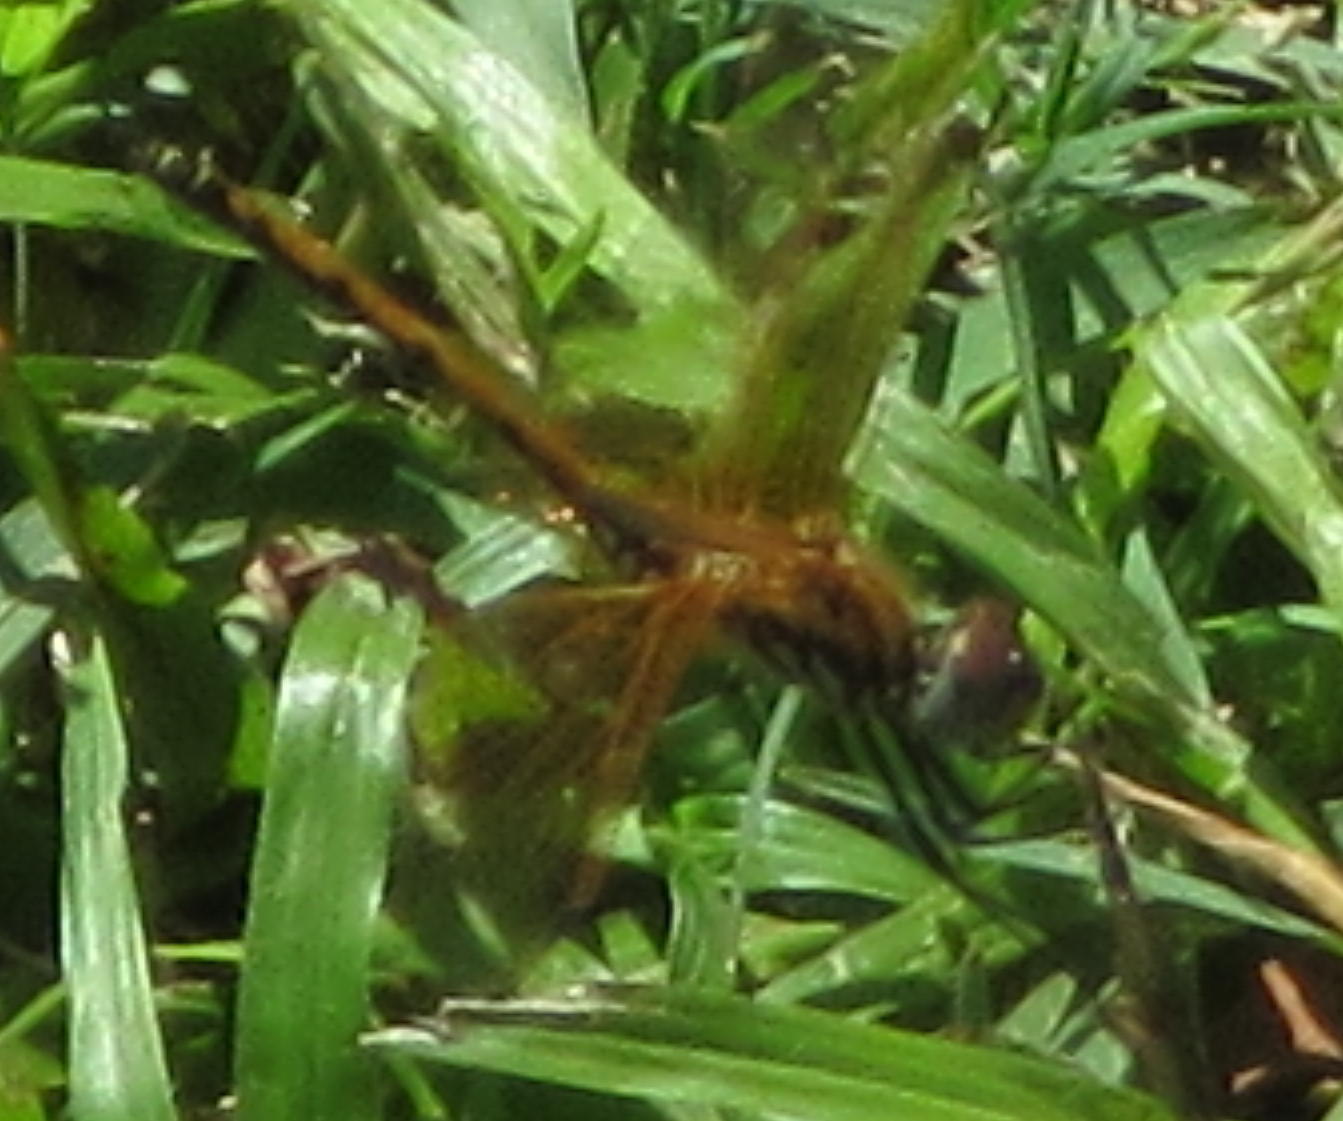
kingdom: Animalia
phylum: Arthropoda
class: Insecta
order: Odonata
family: Libellulidae
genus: Trithemis
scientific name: Trithemis arteriosa
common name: Red-veined dropwing
